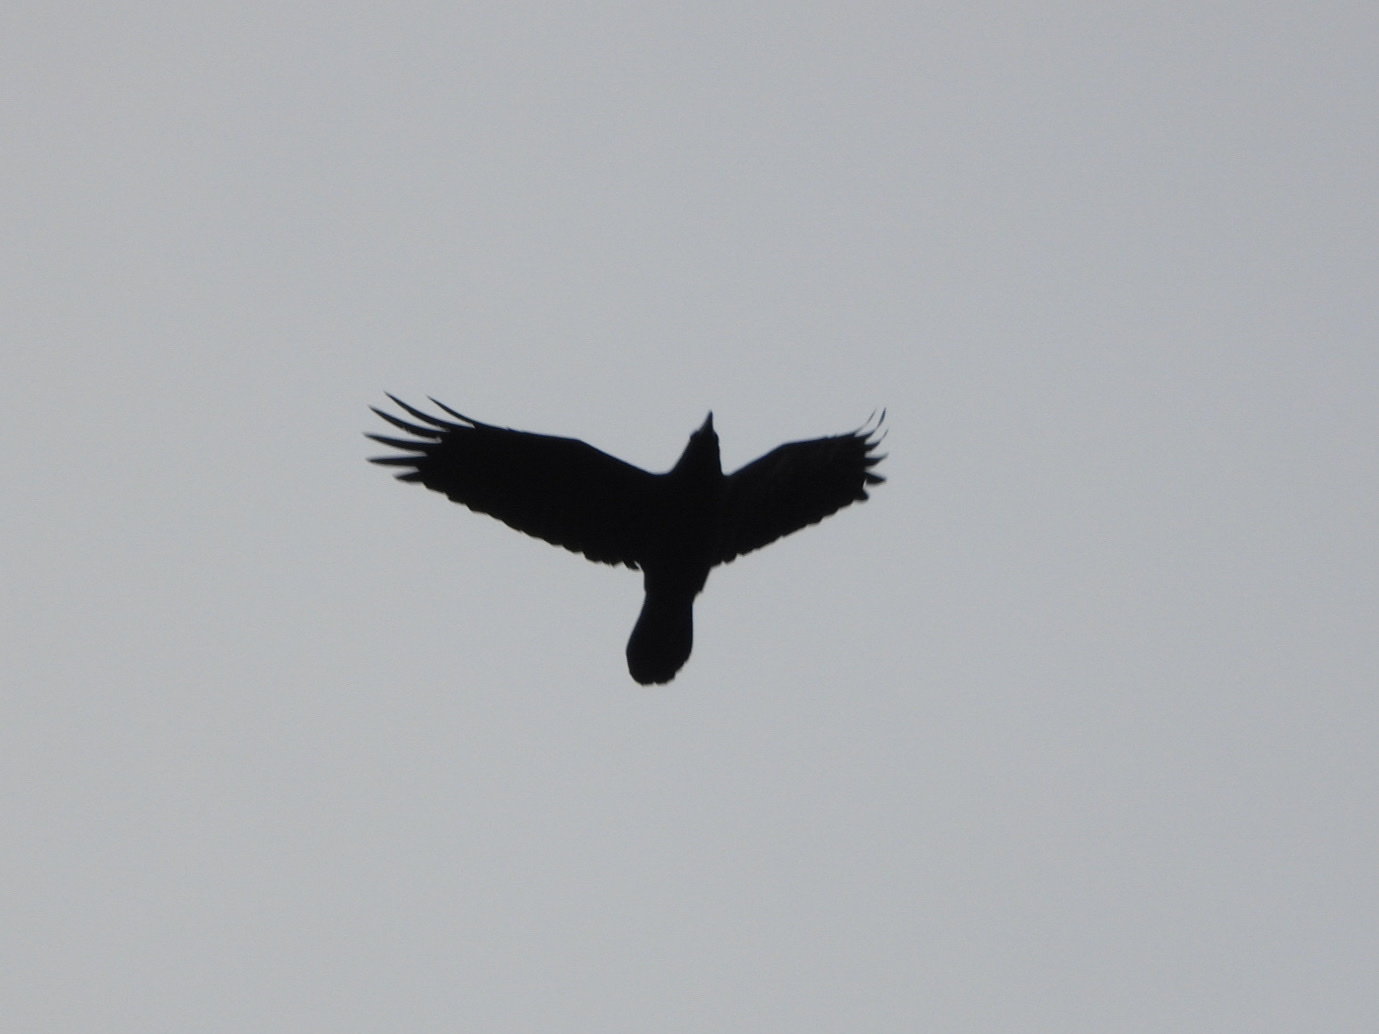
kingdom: Animalia
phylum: Chordata
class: Aves
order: Passeriformes
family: Corvidae
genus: Corvus
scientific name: Corvus corax
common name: Common raven
